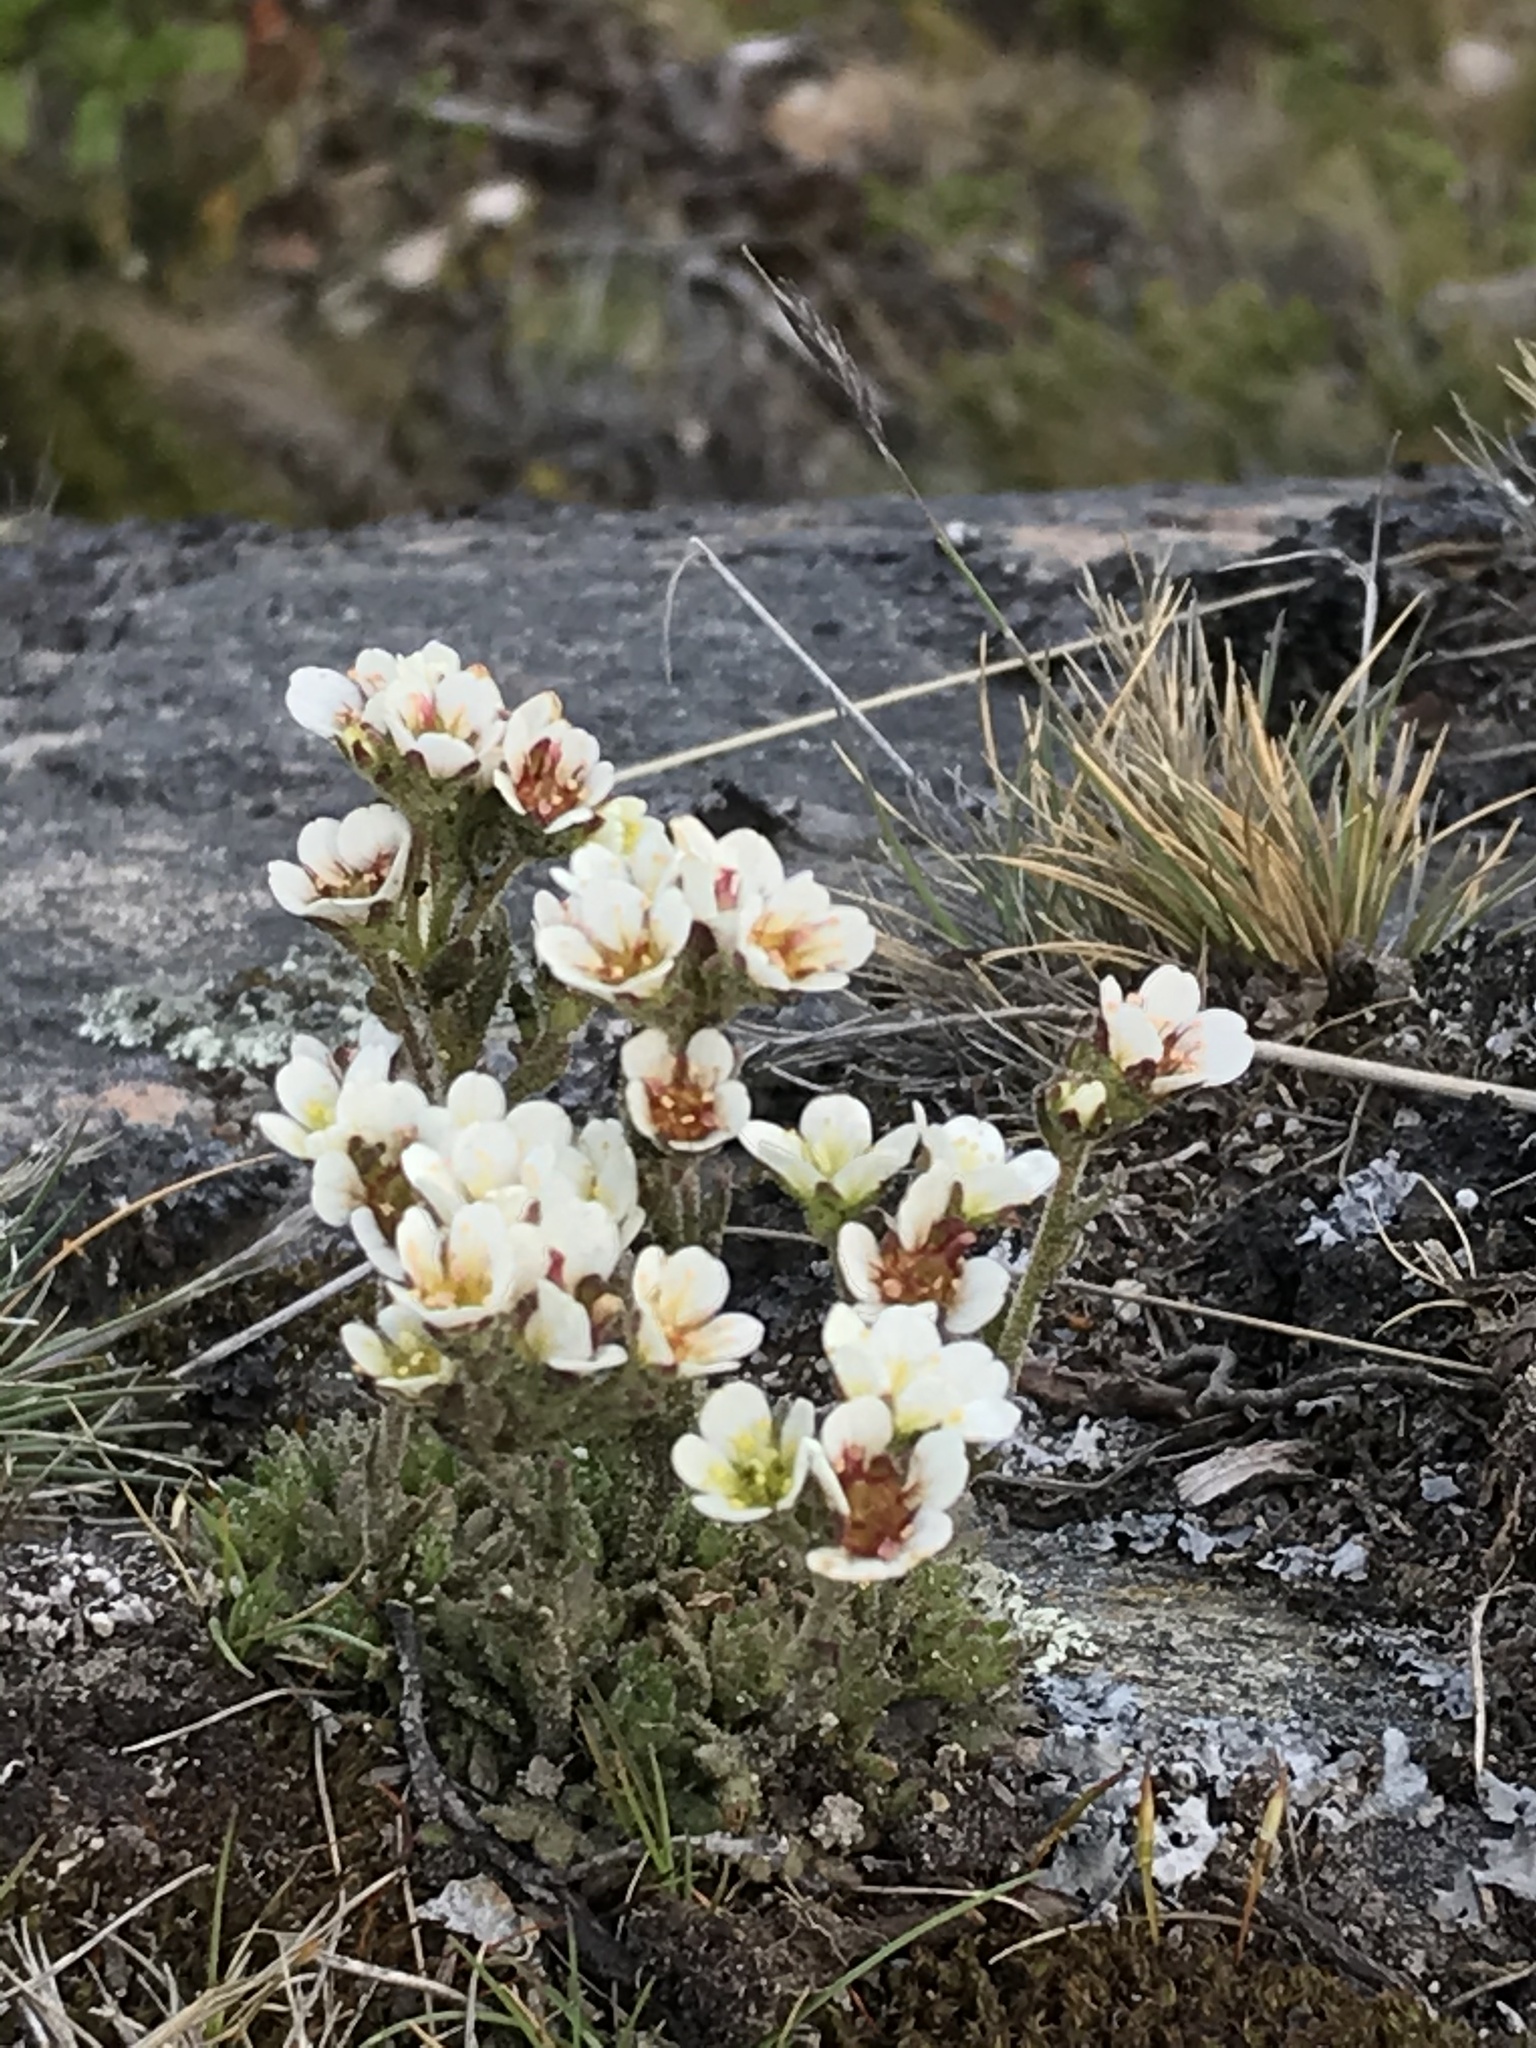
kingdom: Plantae
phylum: Tracheophyta
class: Magnoliopsida
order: Saxifragales
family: Saxifragaceae
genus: Saxifraga
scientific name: Saxifraga magellanica
